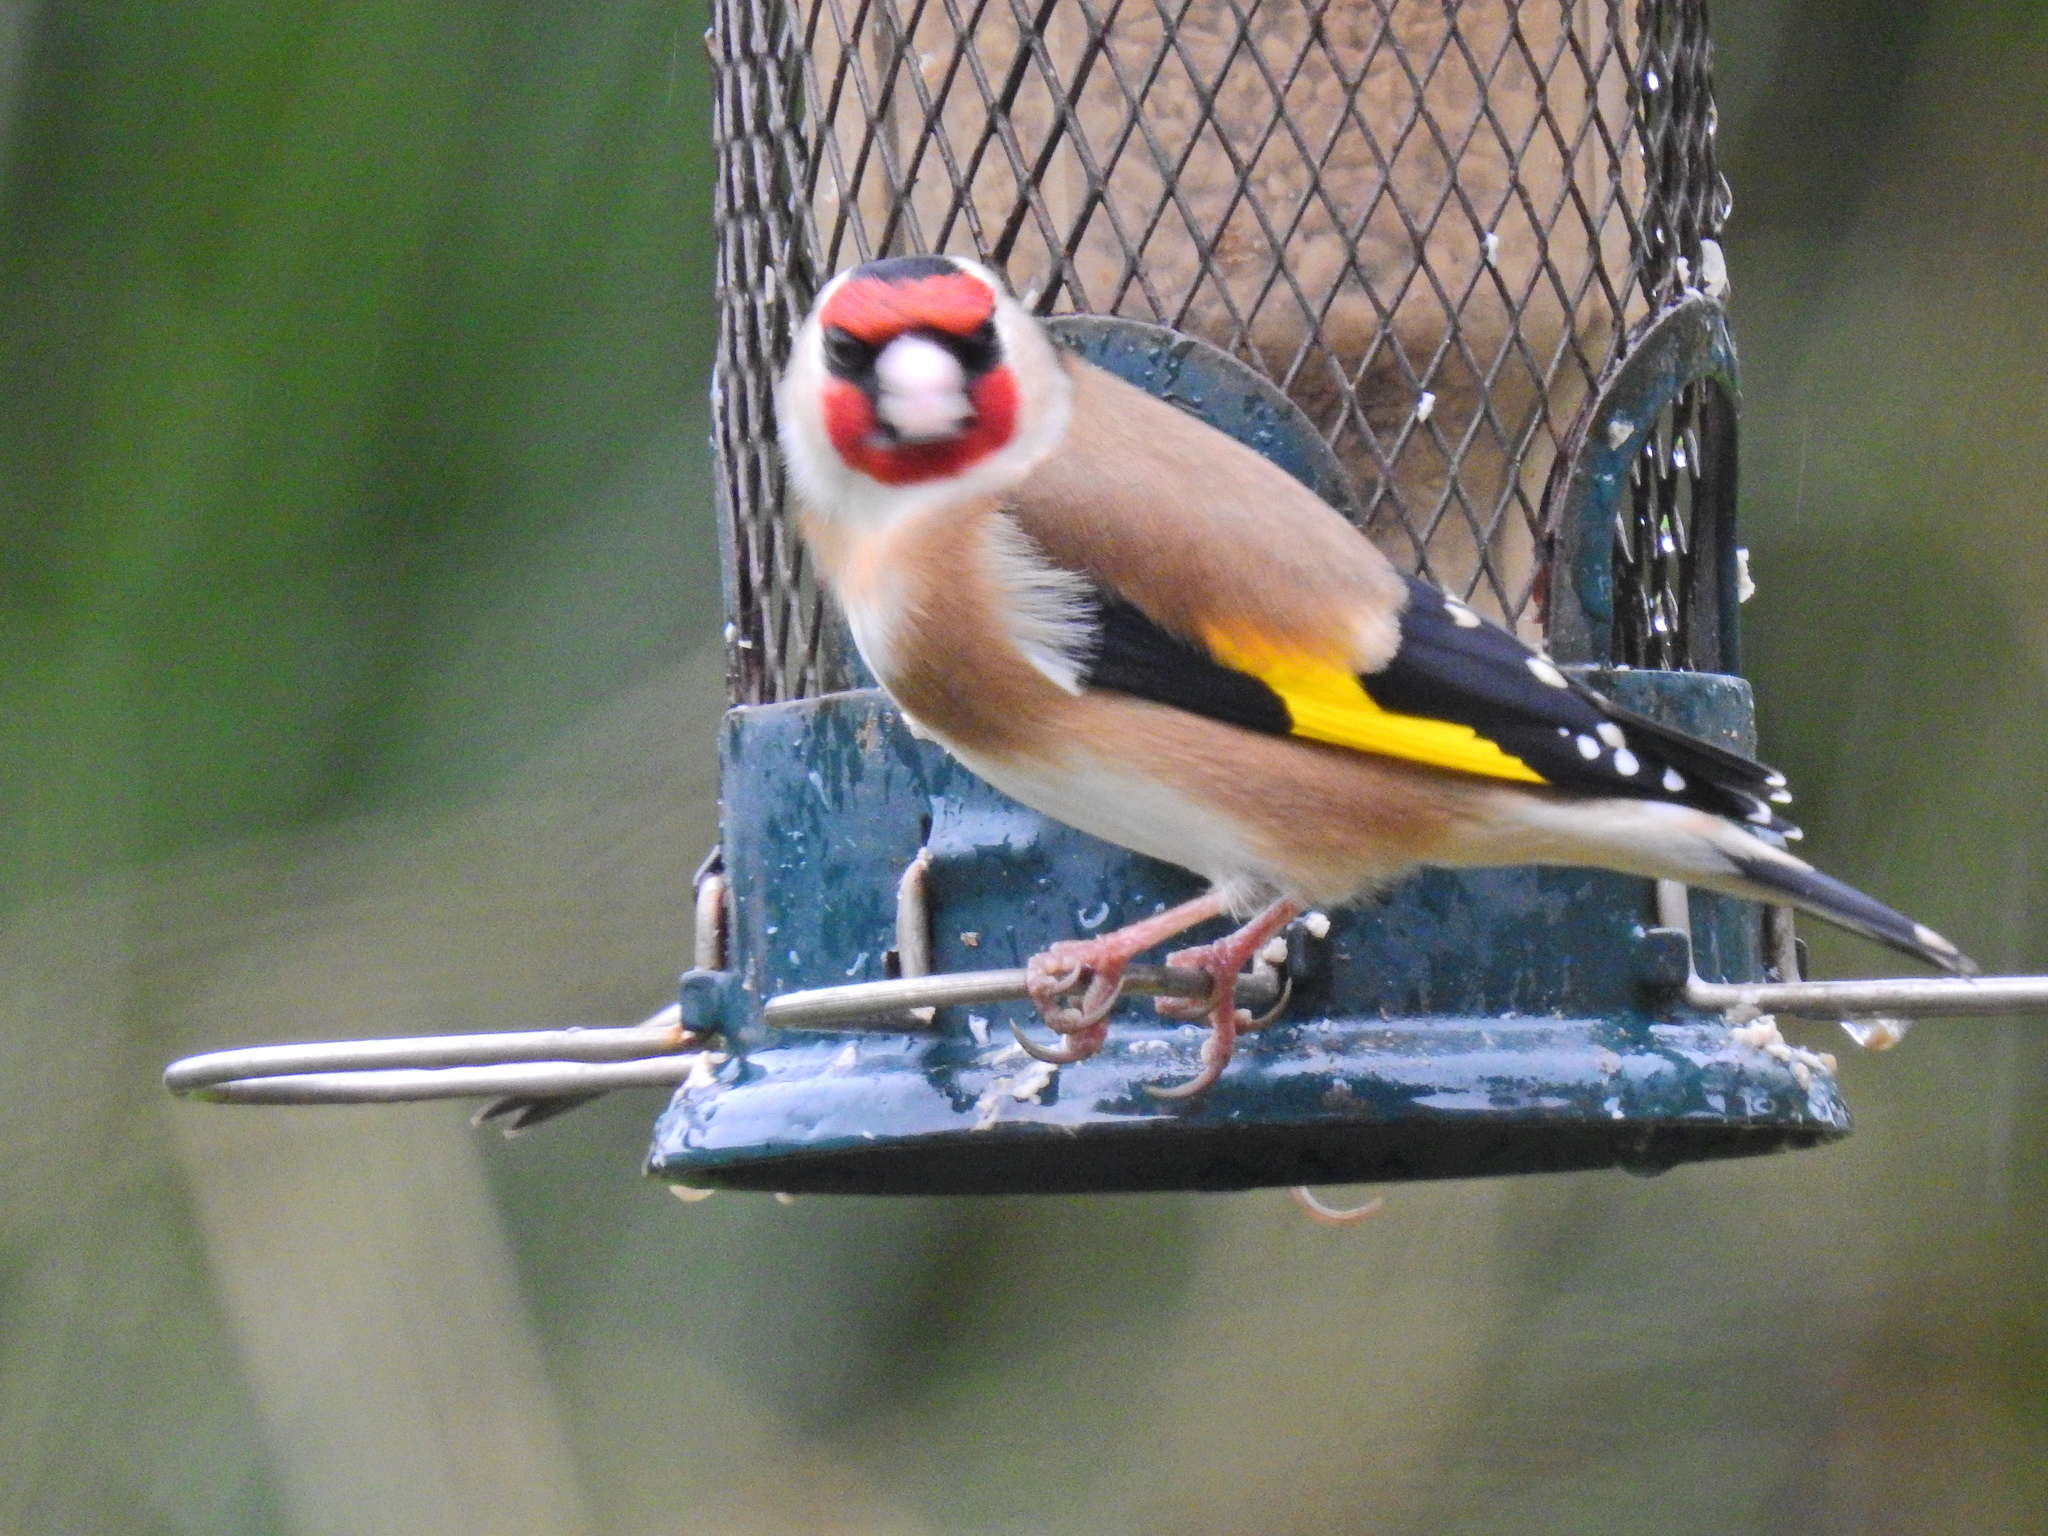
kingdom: Animalia
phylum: Chordata
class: Aves
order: Passeriformes
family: Fringillidae
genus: Carduelis
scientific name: Carduelis carduelis
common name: European goldfinch
